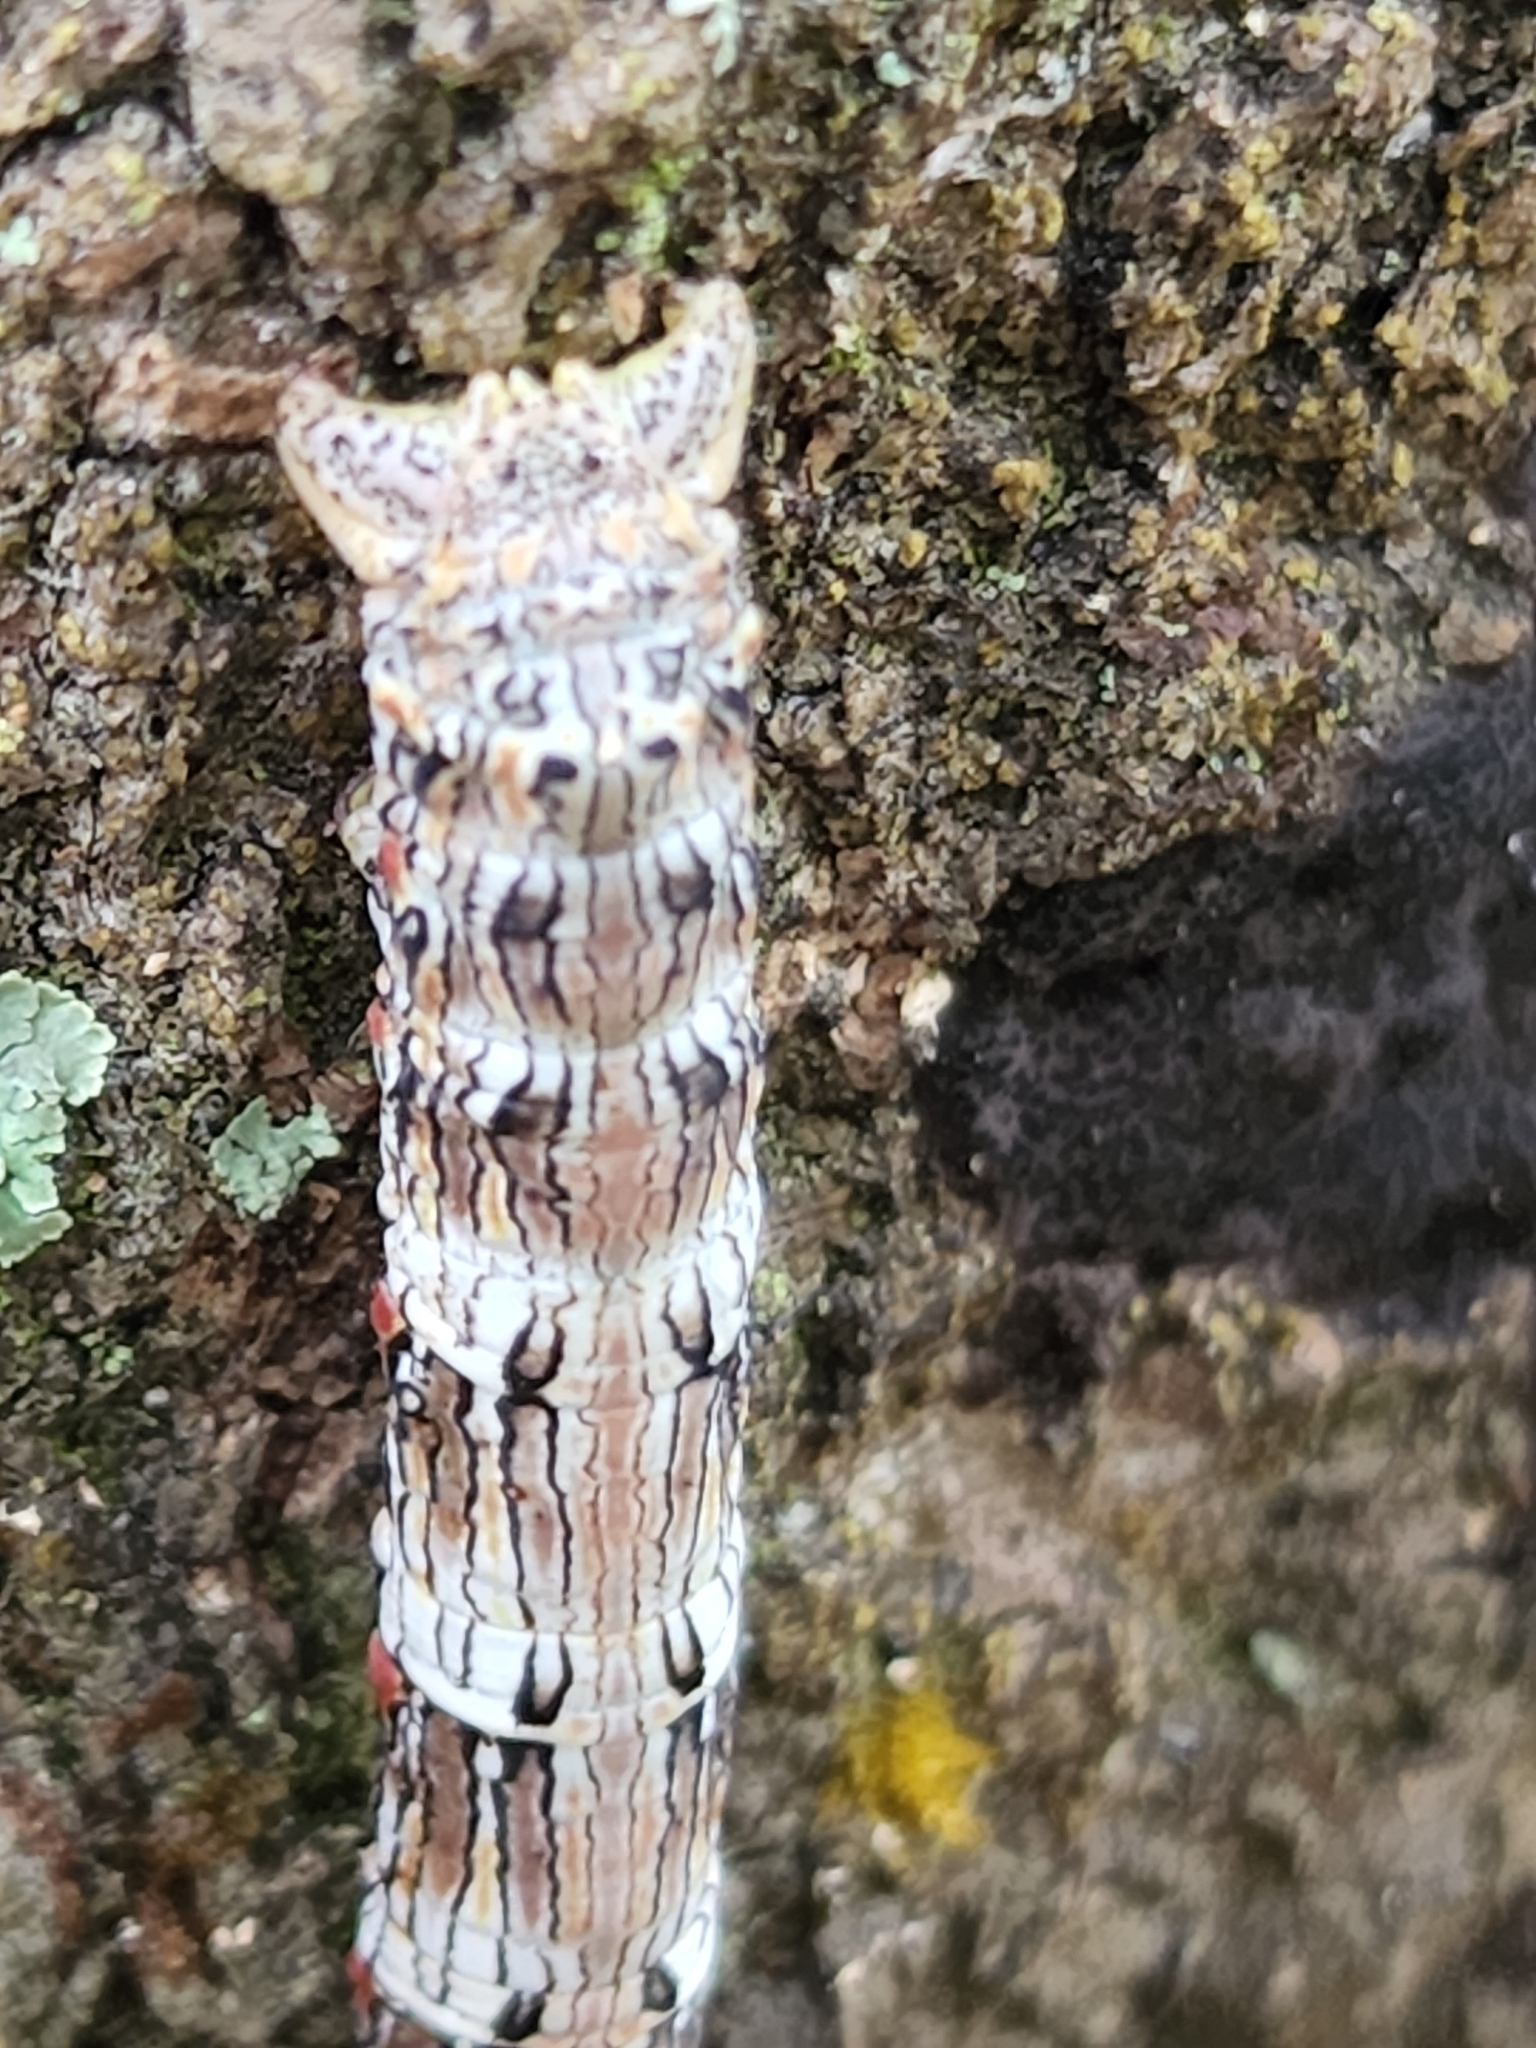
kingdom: Animalia
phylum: Arthropoda
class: Insecta
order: Lepidoptera
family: Geometridae
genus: Lycia
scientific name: Lycia ypsilon
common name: Wooly gray
